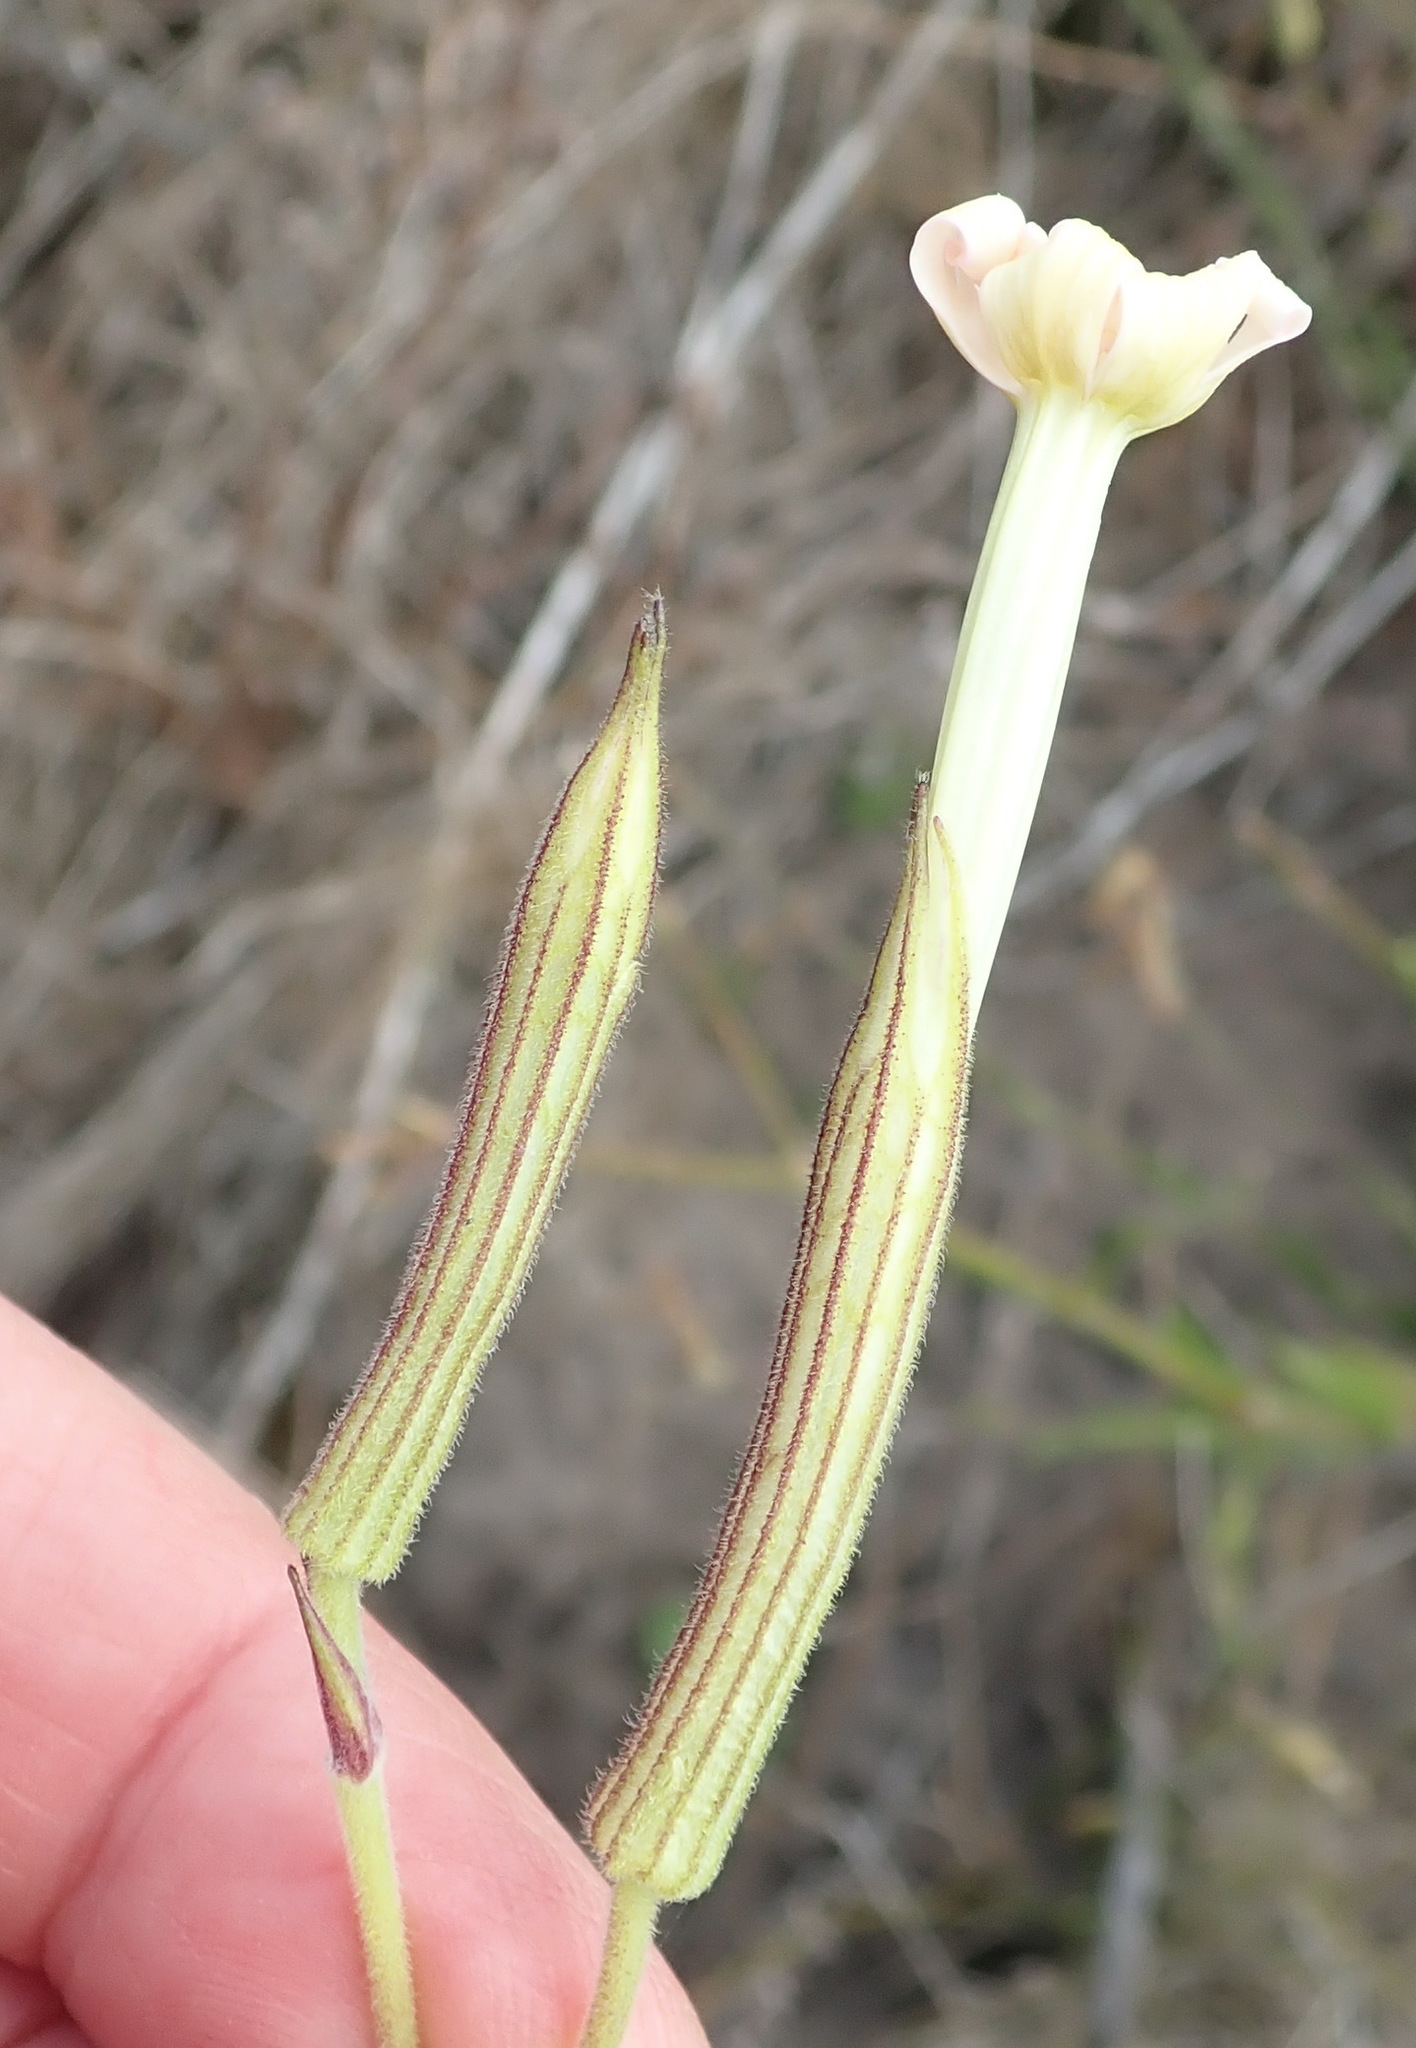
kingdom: Plantae
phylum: Tracheophyta
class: Magnoliopsida
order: Caryophyllales
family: Caryophyllaceae
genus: Silene
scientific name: Silene undulata
